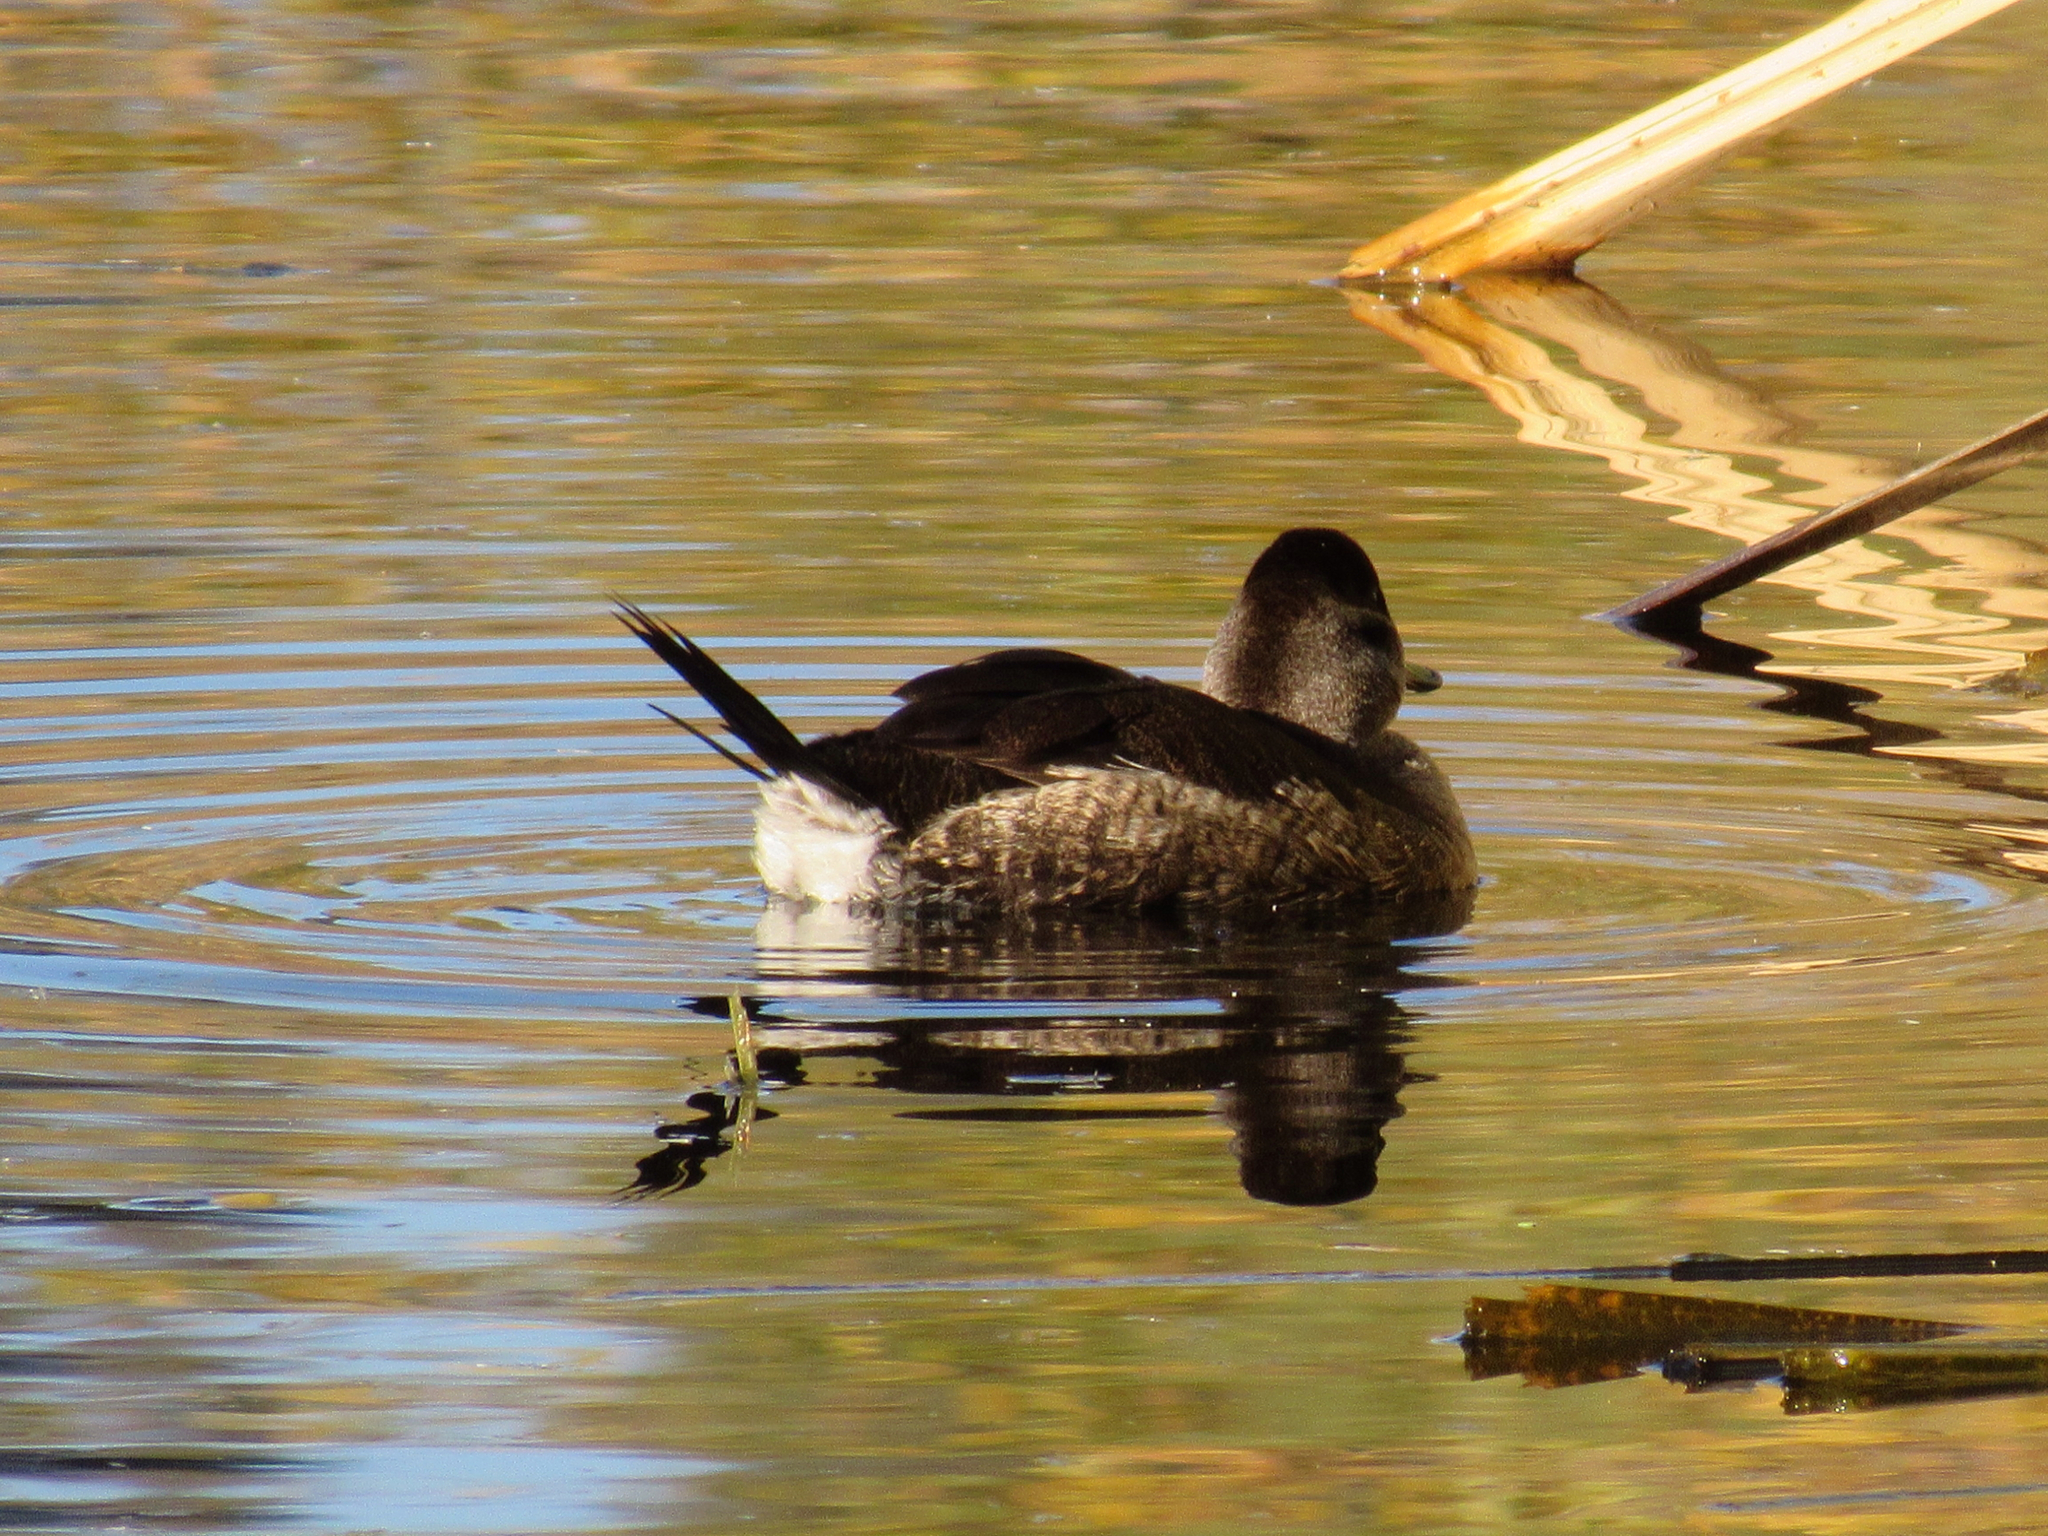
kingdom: Animalia
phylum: Chordata
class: Aves
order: Anseriformes
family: Anatidae
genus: Oxyura
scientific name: Oxyura jamaicensis
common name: Ruddy duck
